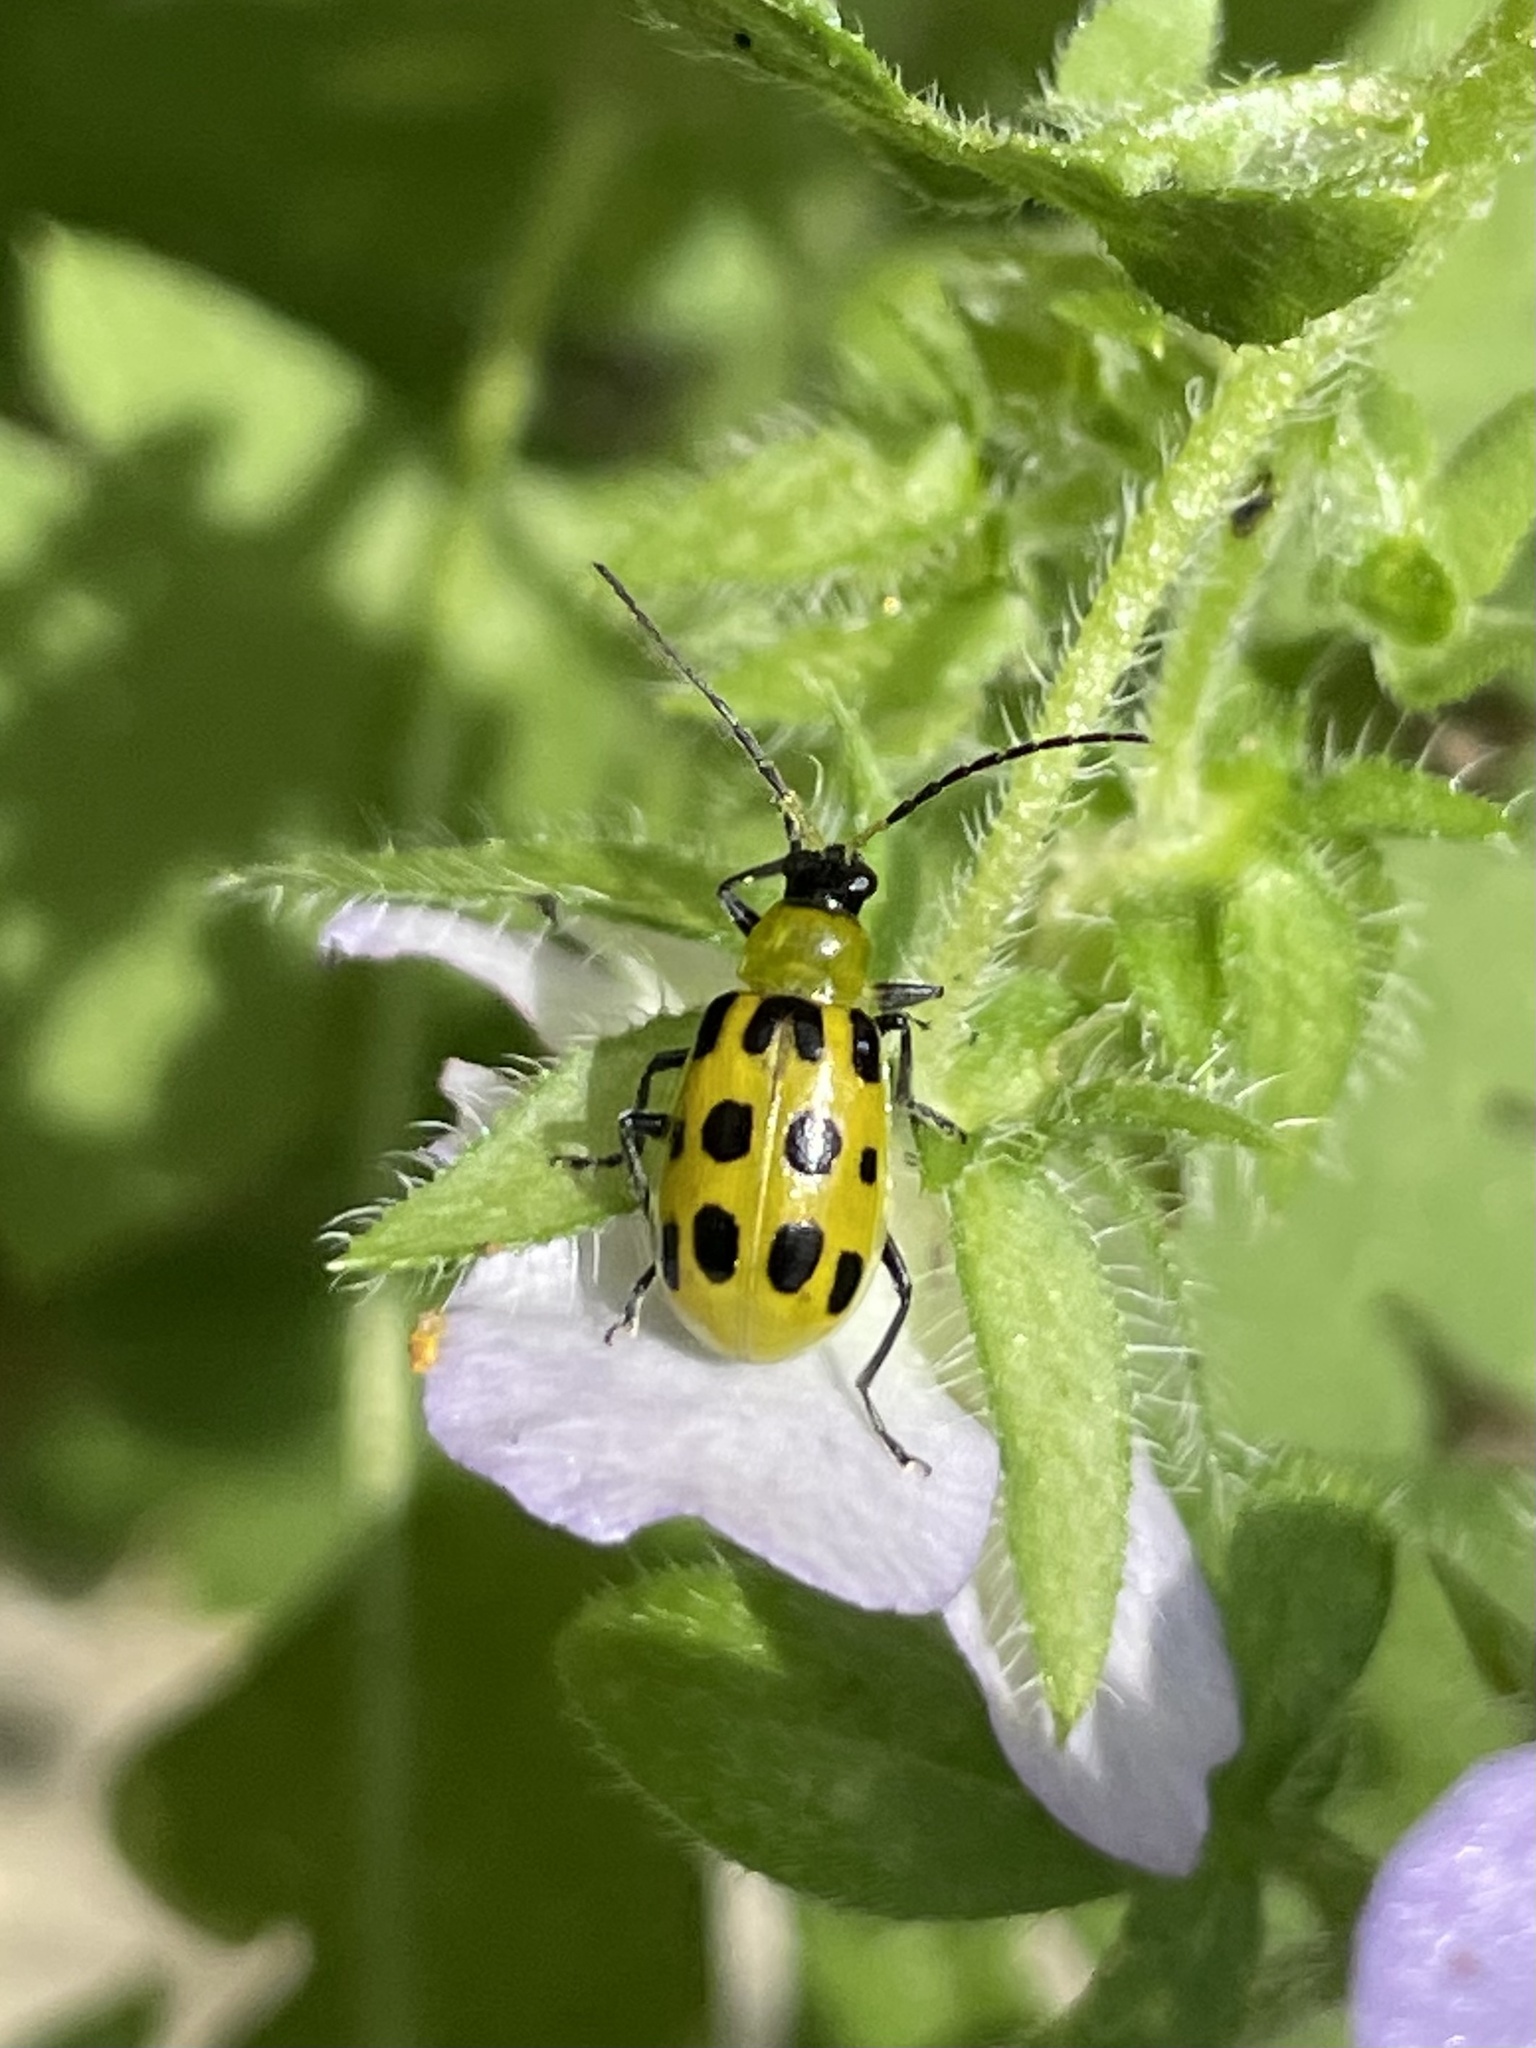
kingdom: Animalia
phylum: Arthropoda
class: Insecta
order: Coleoptera
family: Chrysomelidae
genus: Diabrotica
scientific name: Diabrotica undecimpunctata
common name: Spotted cucumber beetle
